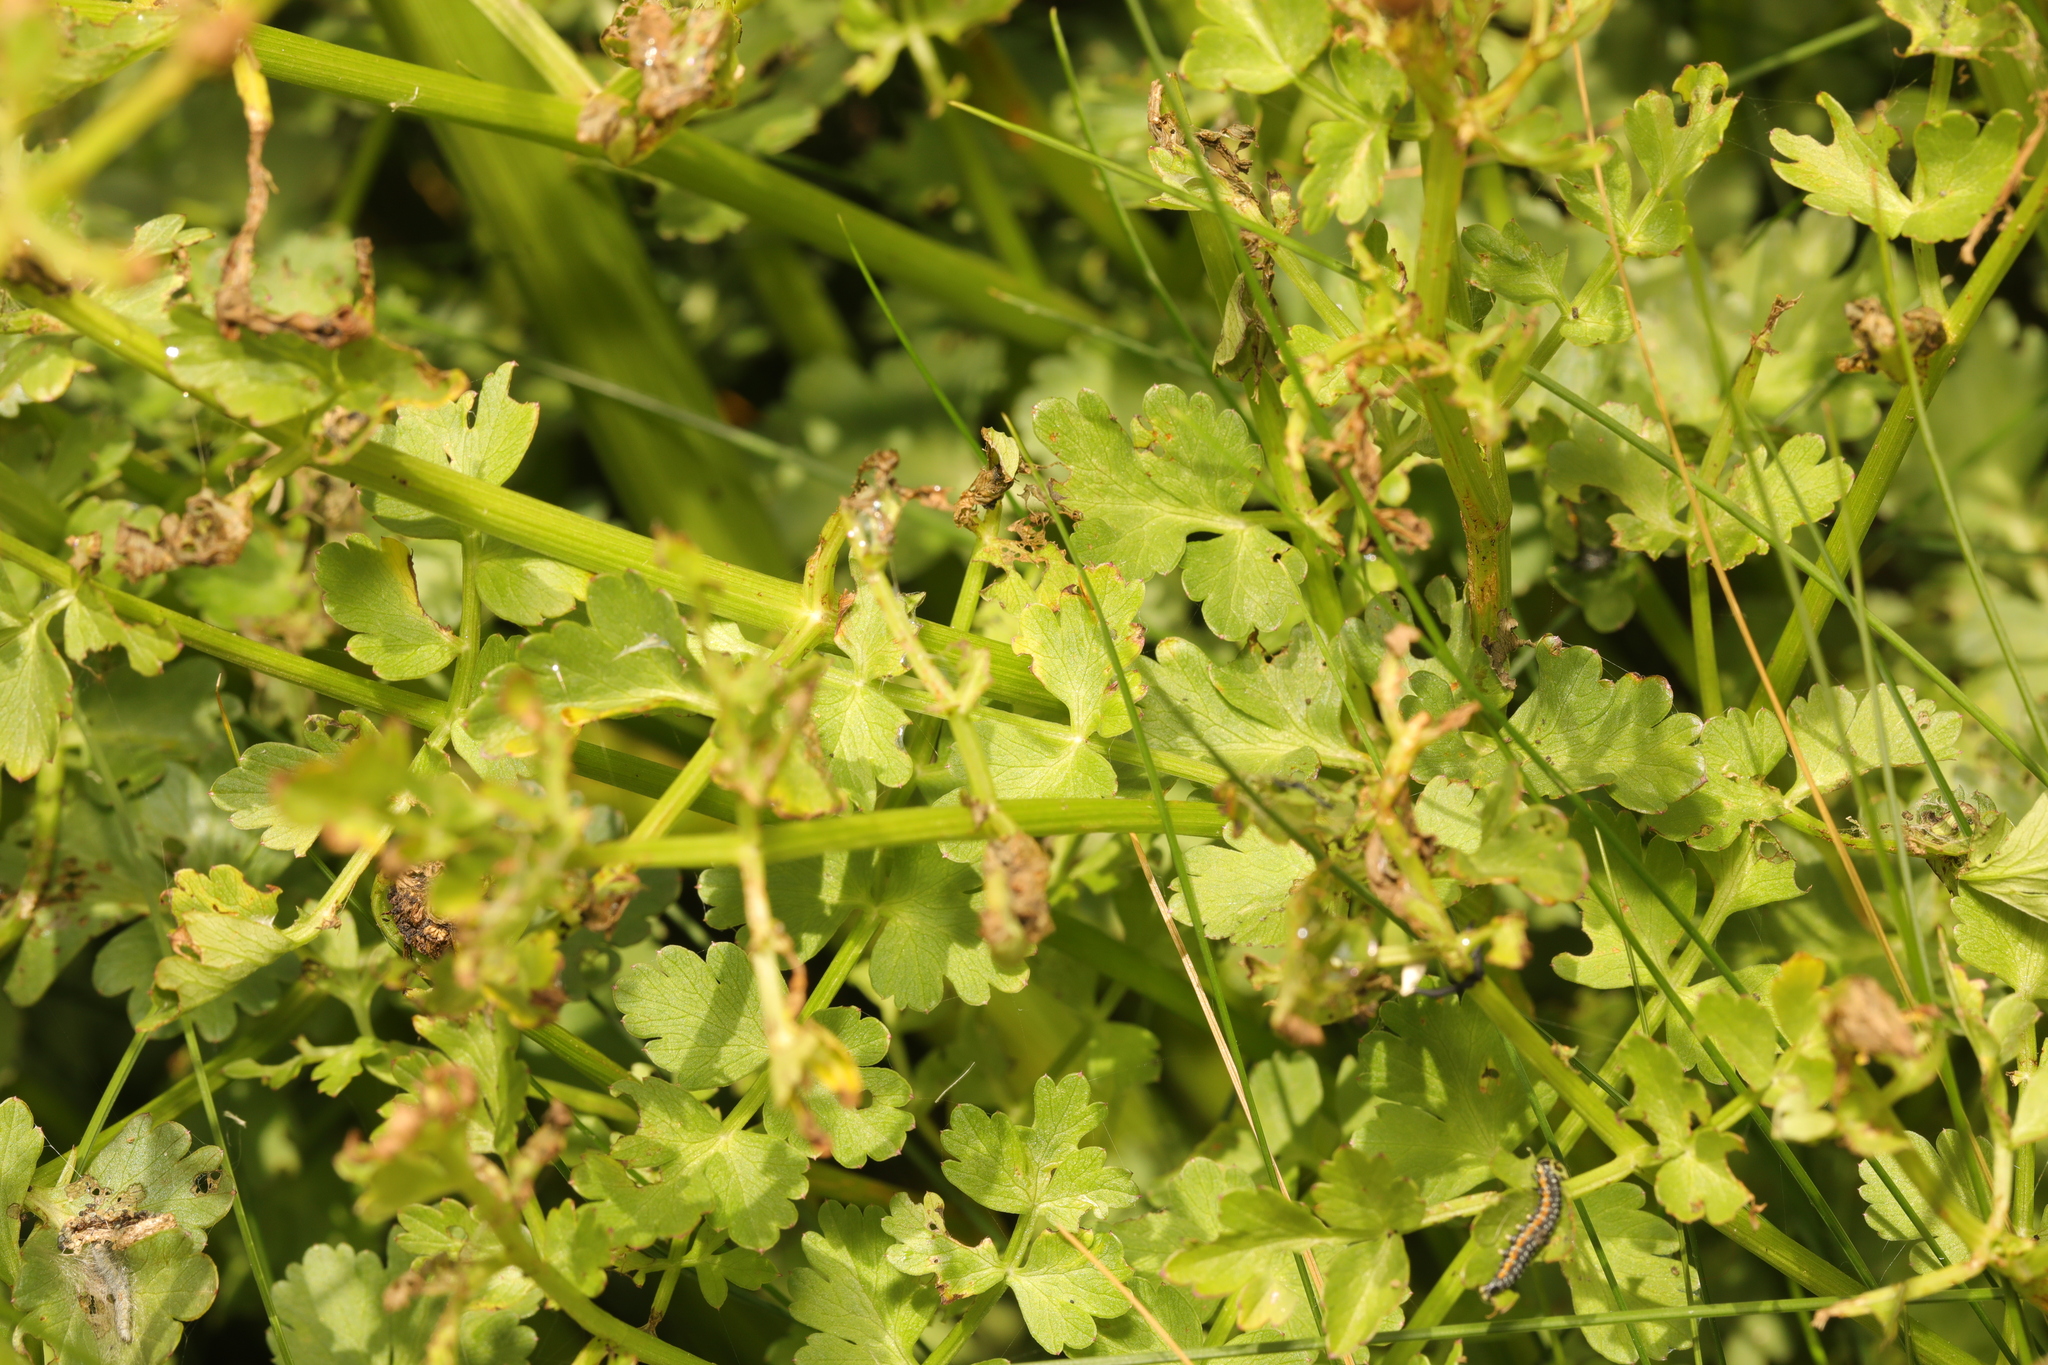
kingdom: Plantae
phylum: Tracheophyta
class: Magnoliopsida
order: Apiales
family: Apiaceae
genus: Oenanthe
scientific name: Oenanthe crocata
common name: Hemlock water-dropwort
